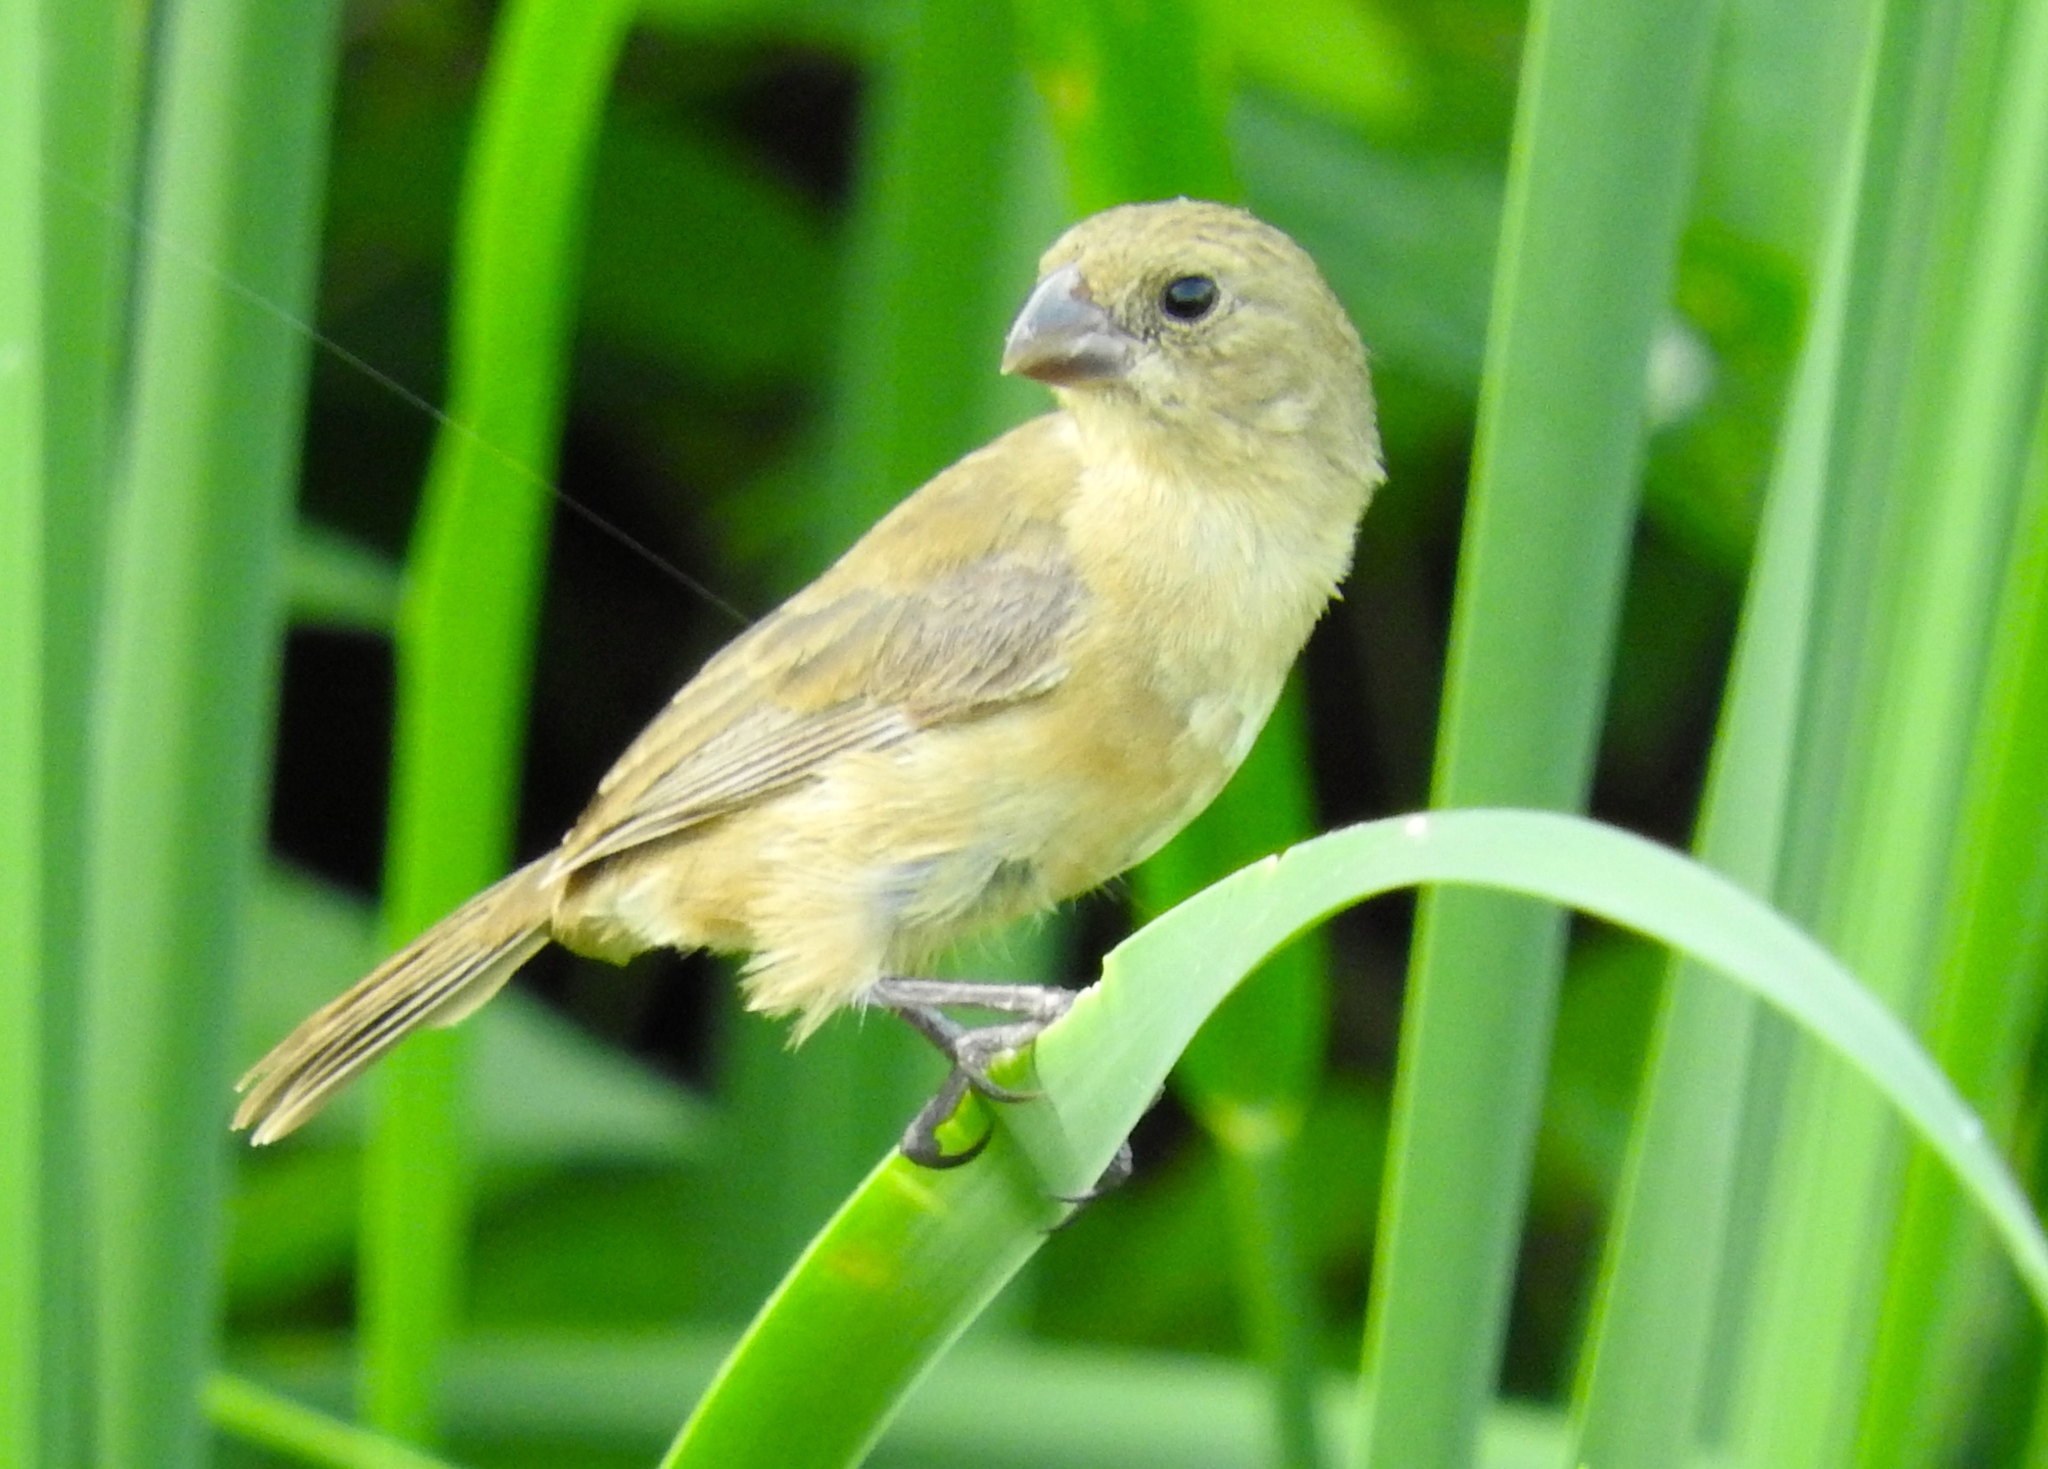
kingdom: Animalia
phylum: Chordata
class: Aves
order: Passeriformes
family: Thraupidae
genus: Sporophila
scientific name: Sporophila torqueola
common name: White-collared seedeater
